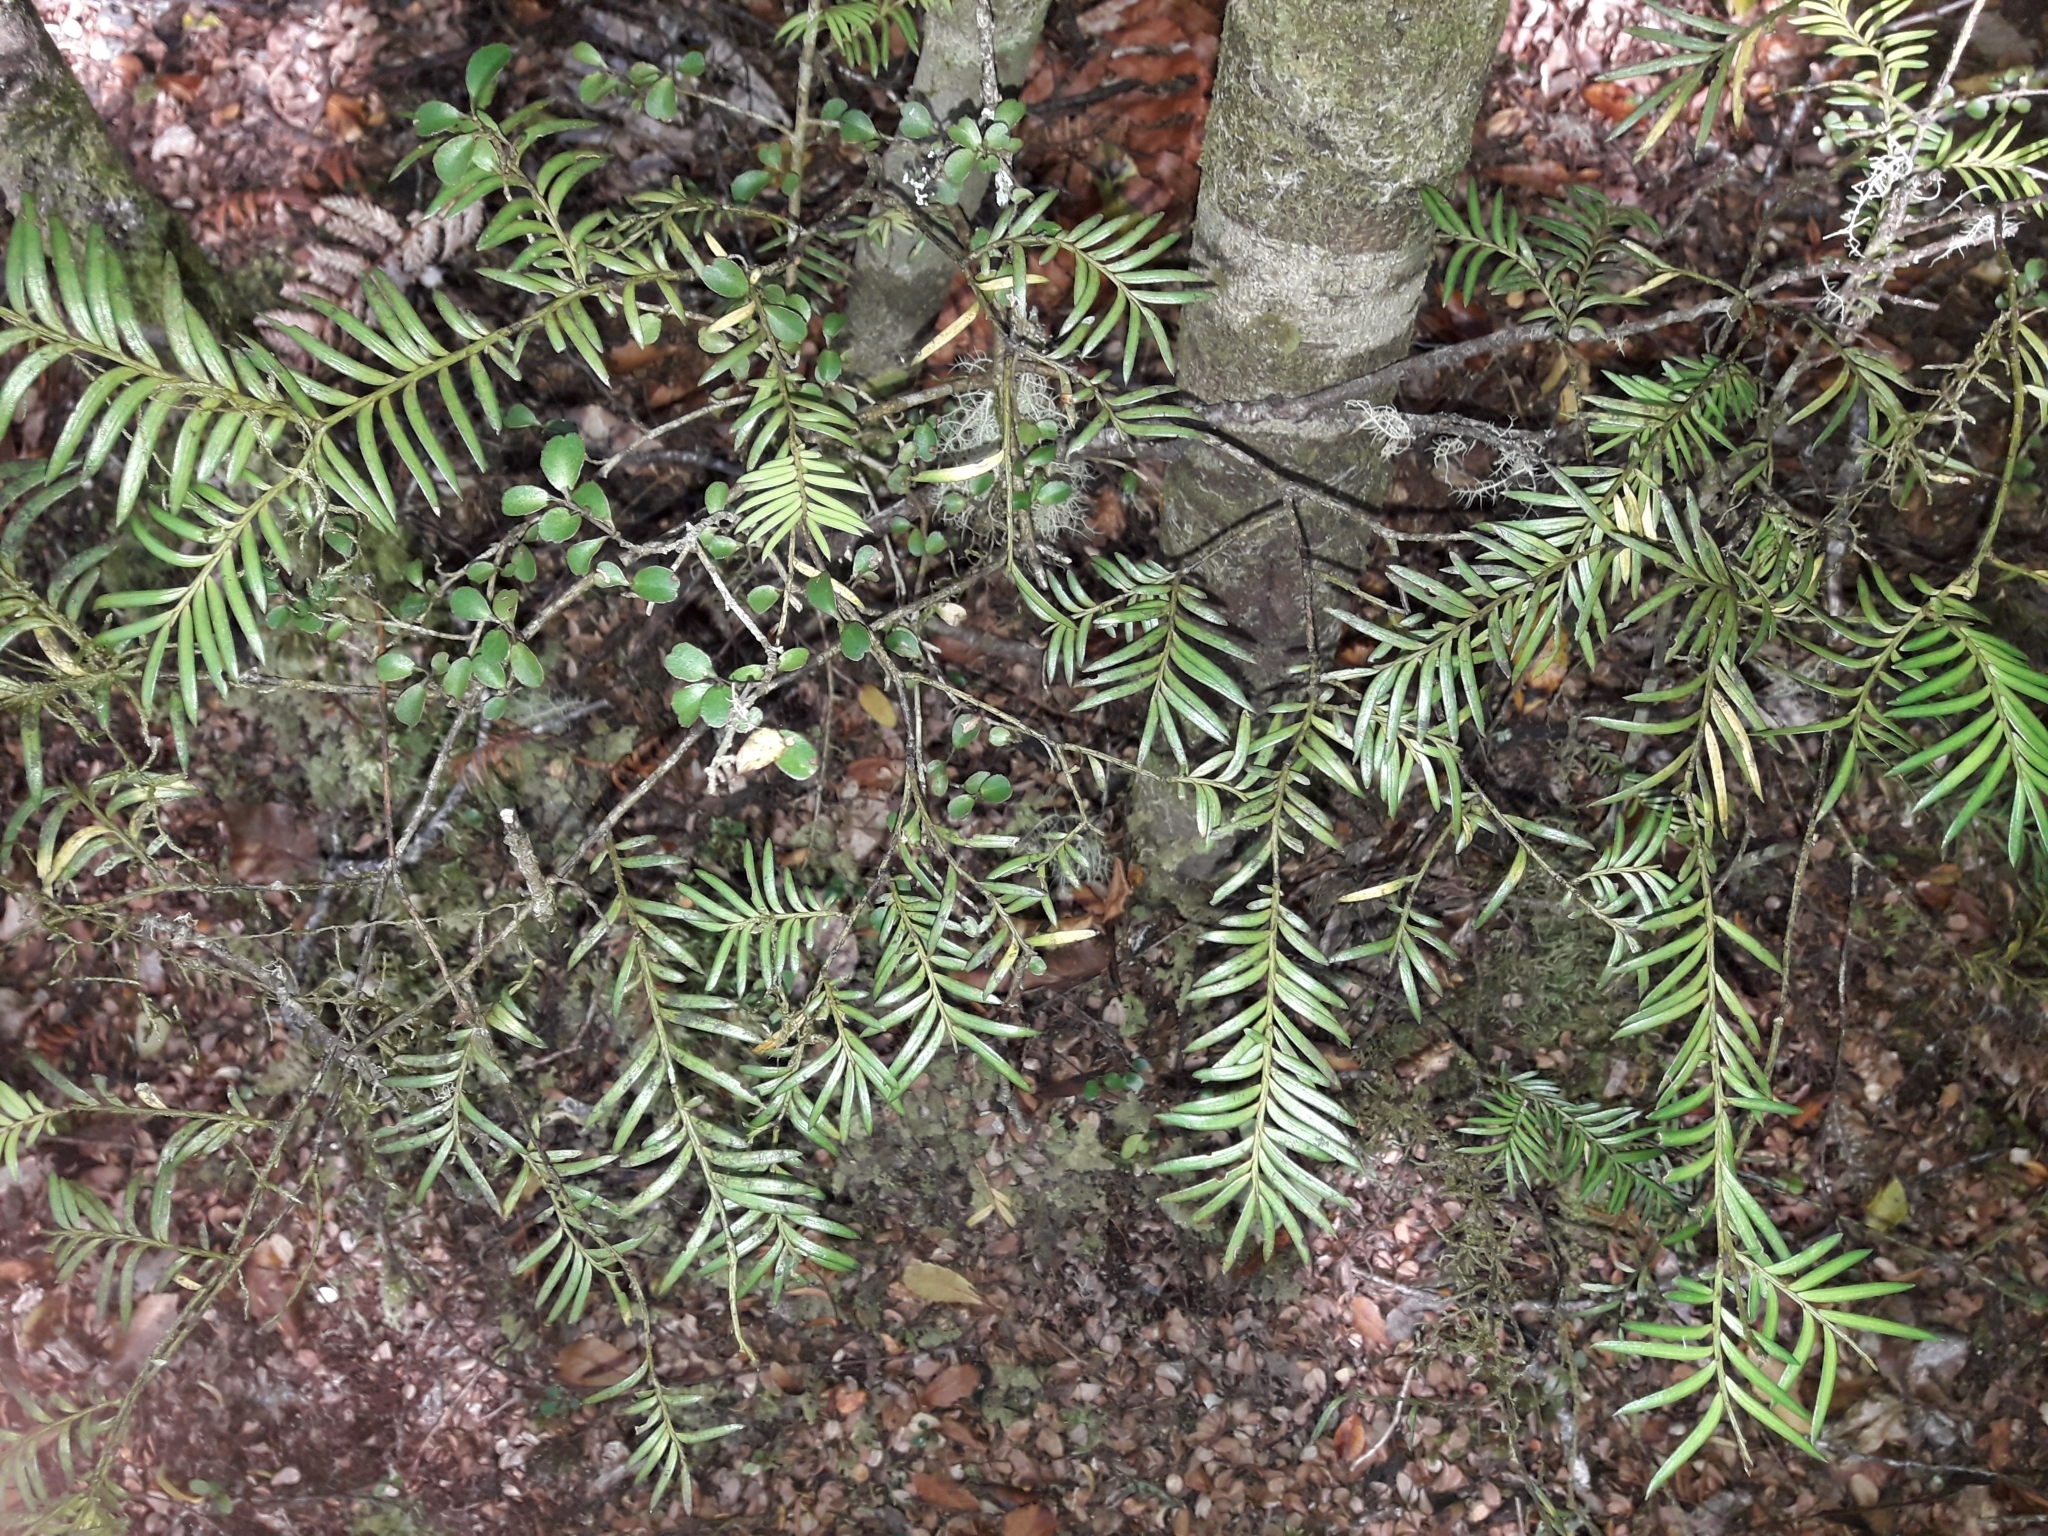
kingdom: Plantae
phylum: Tracheophyta
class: Pinopsida
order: Pinales
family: Podocarpaceae
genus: Prumnopitys
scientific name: Prumnopitys ferruginea
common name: Brown pine
